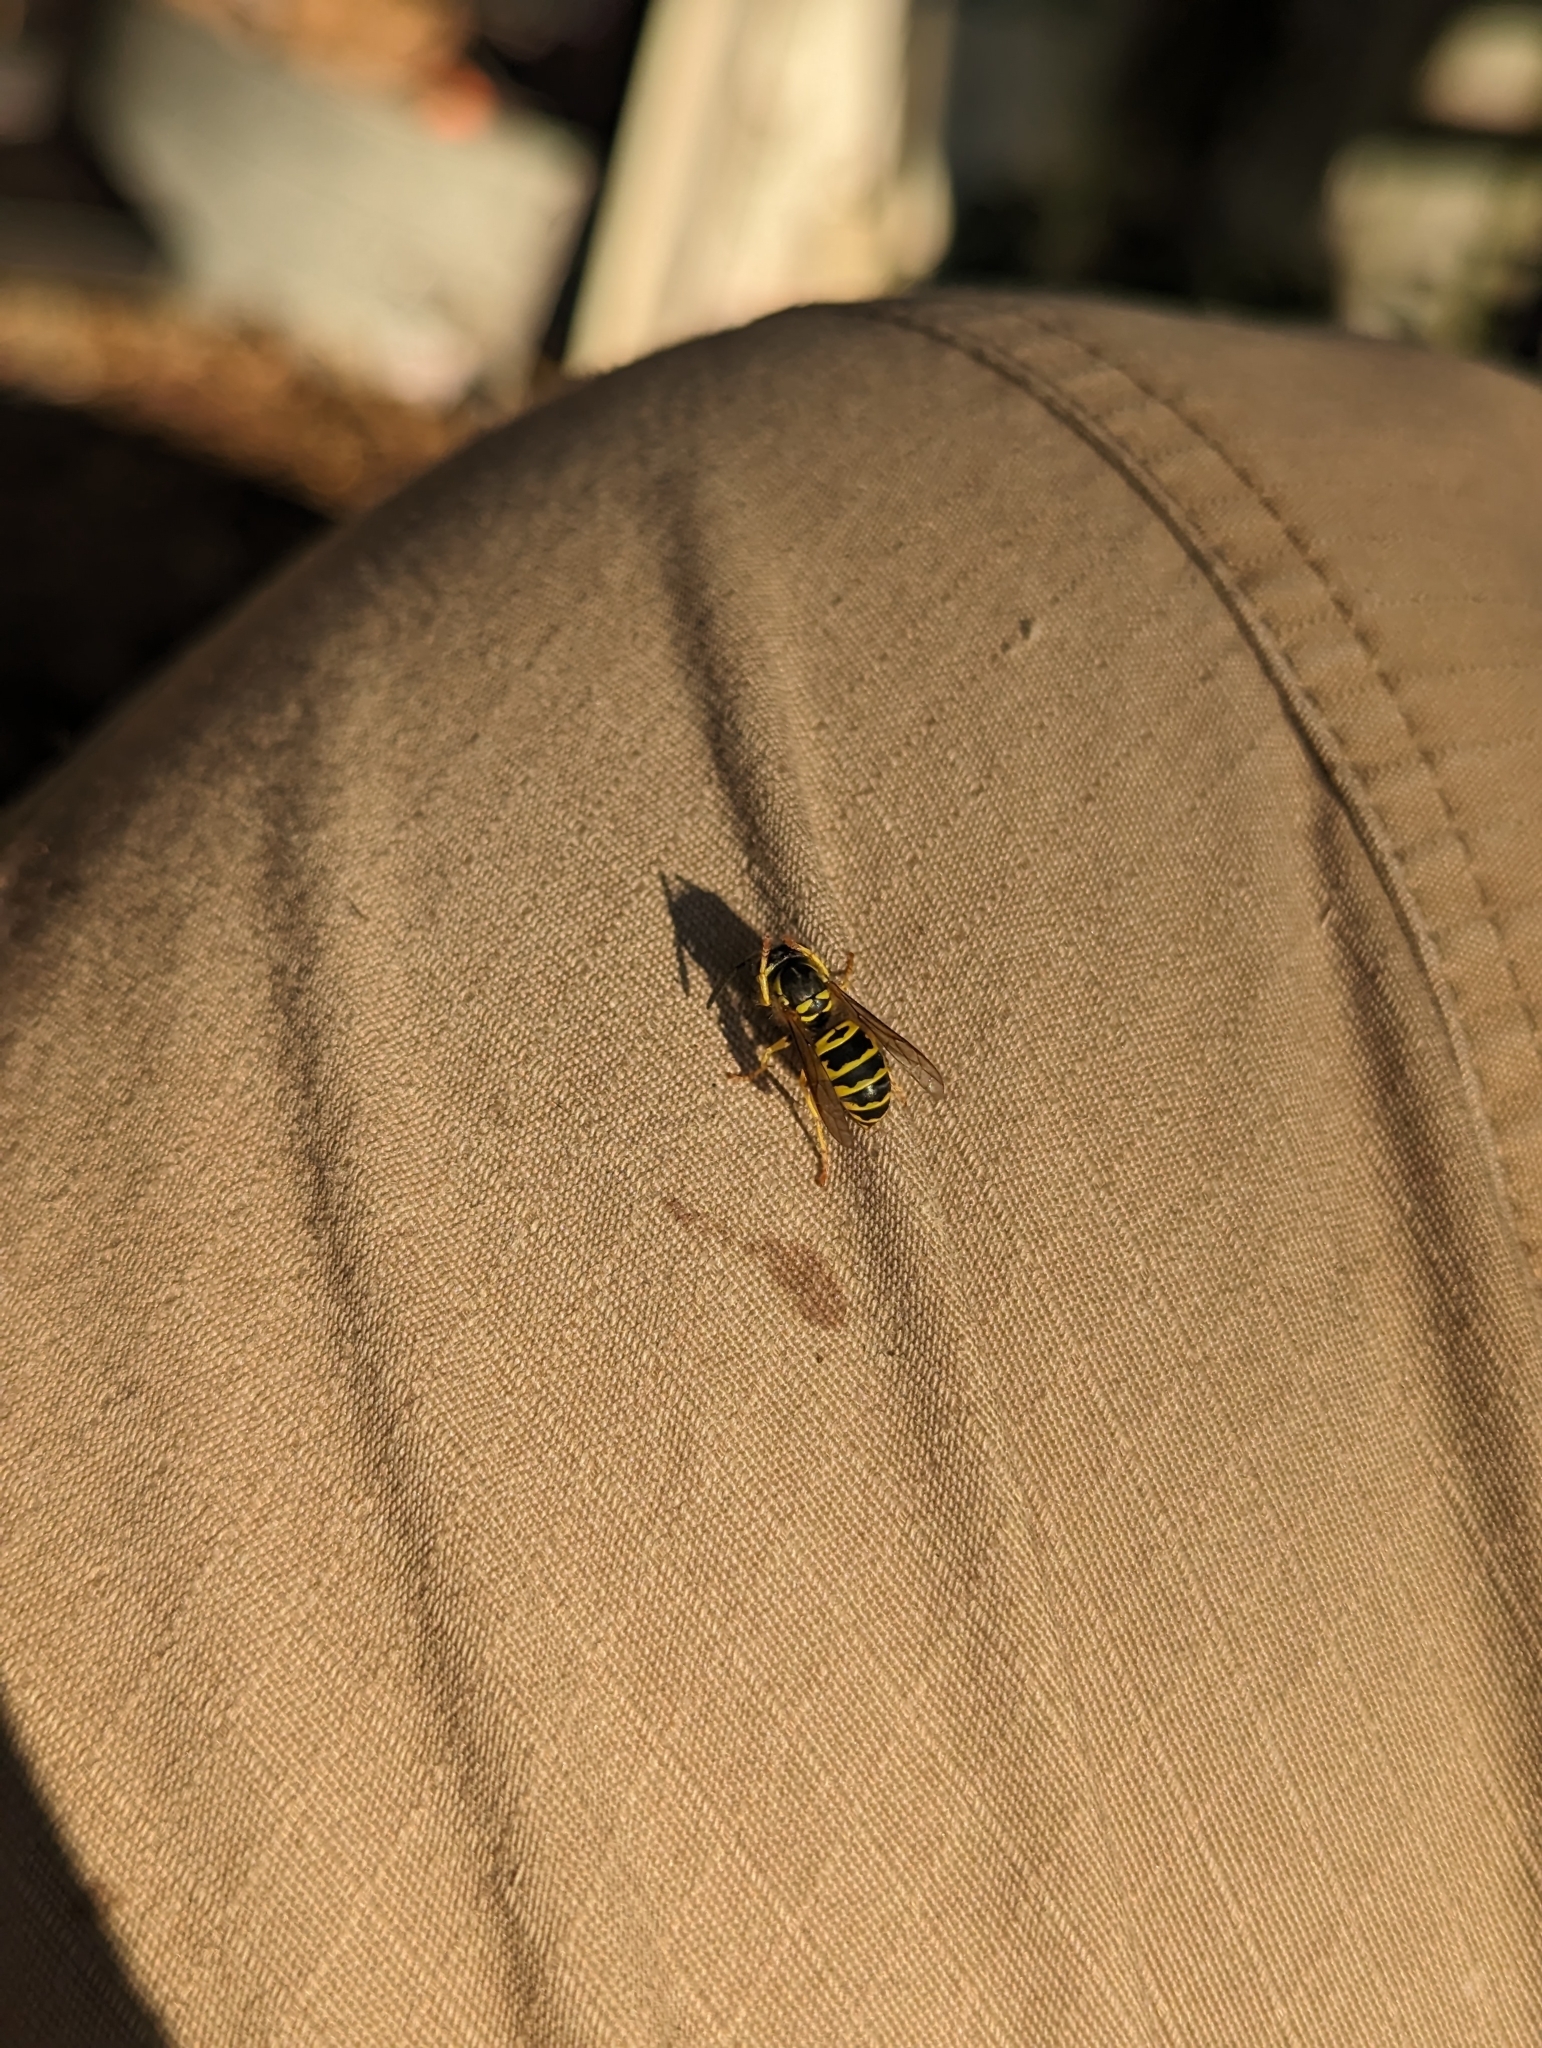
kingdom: Animalia
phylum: Arthropoda
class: Insecta
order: Hymenoptera
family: Vespidae
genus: Vespula
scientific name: Vespula maculifrons
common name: Eastern yellowjacket
